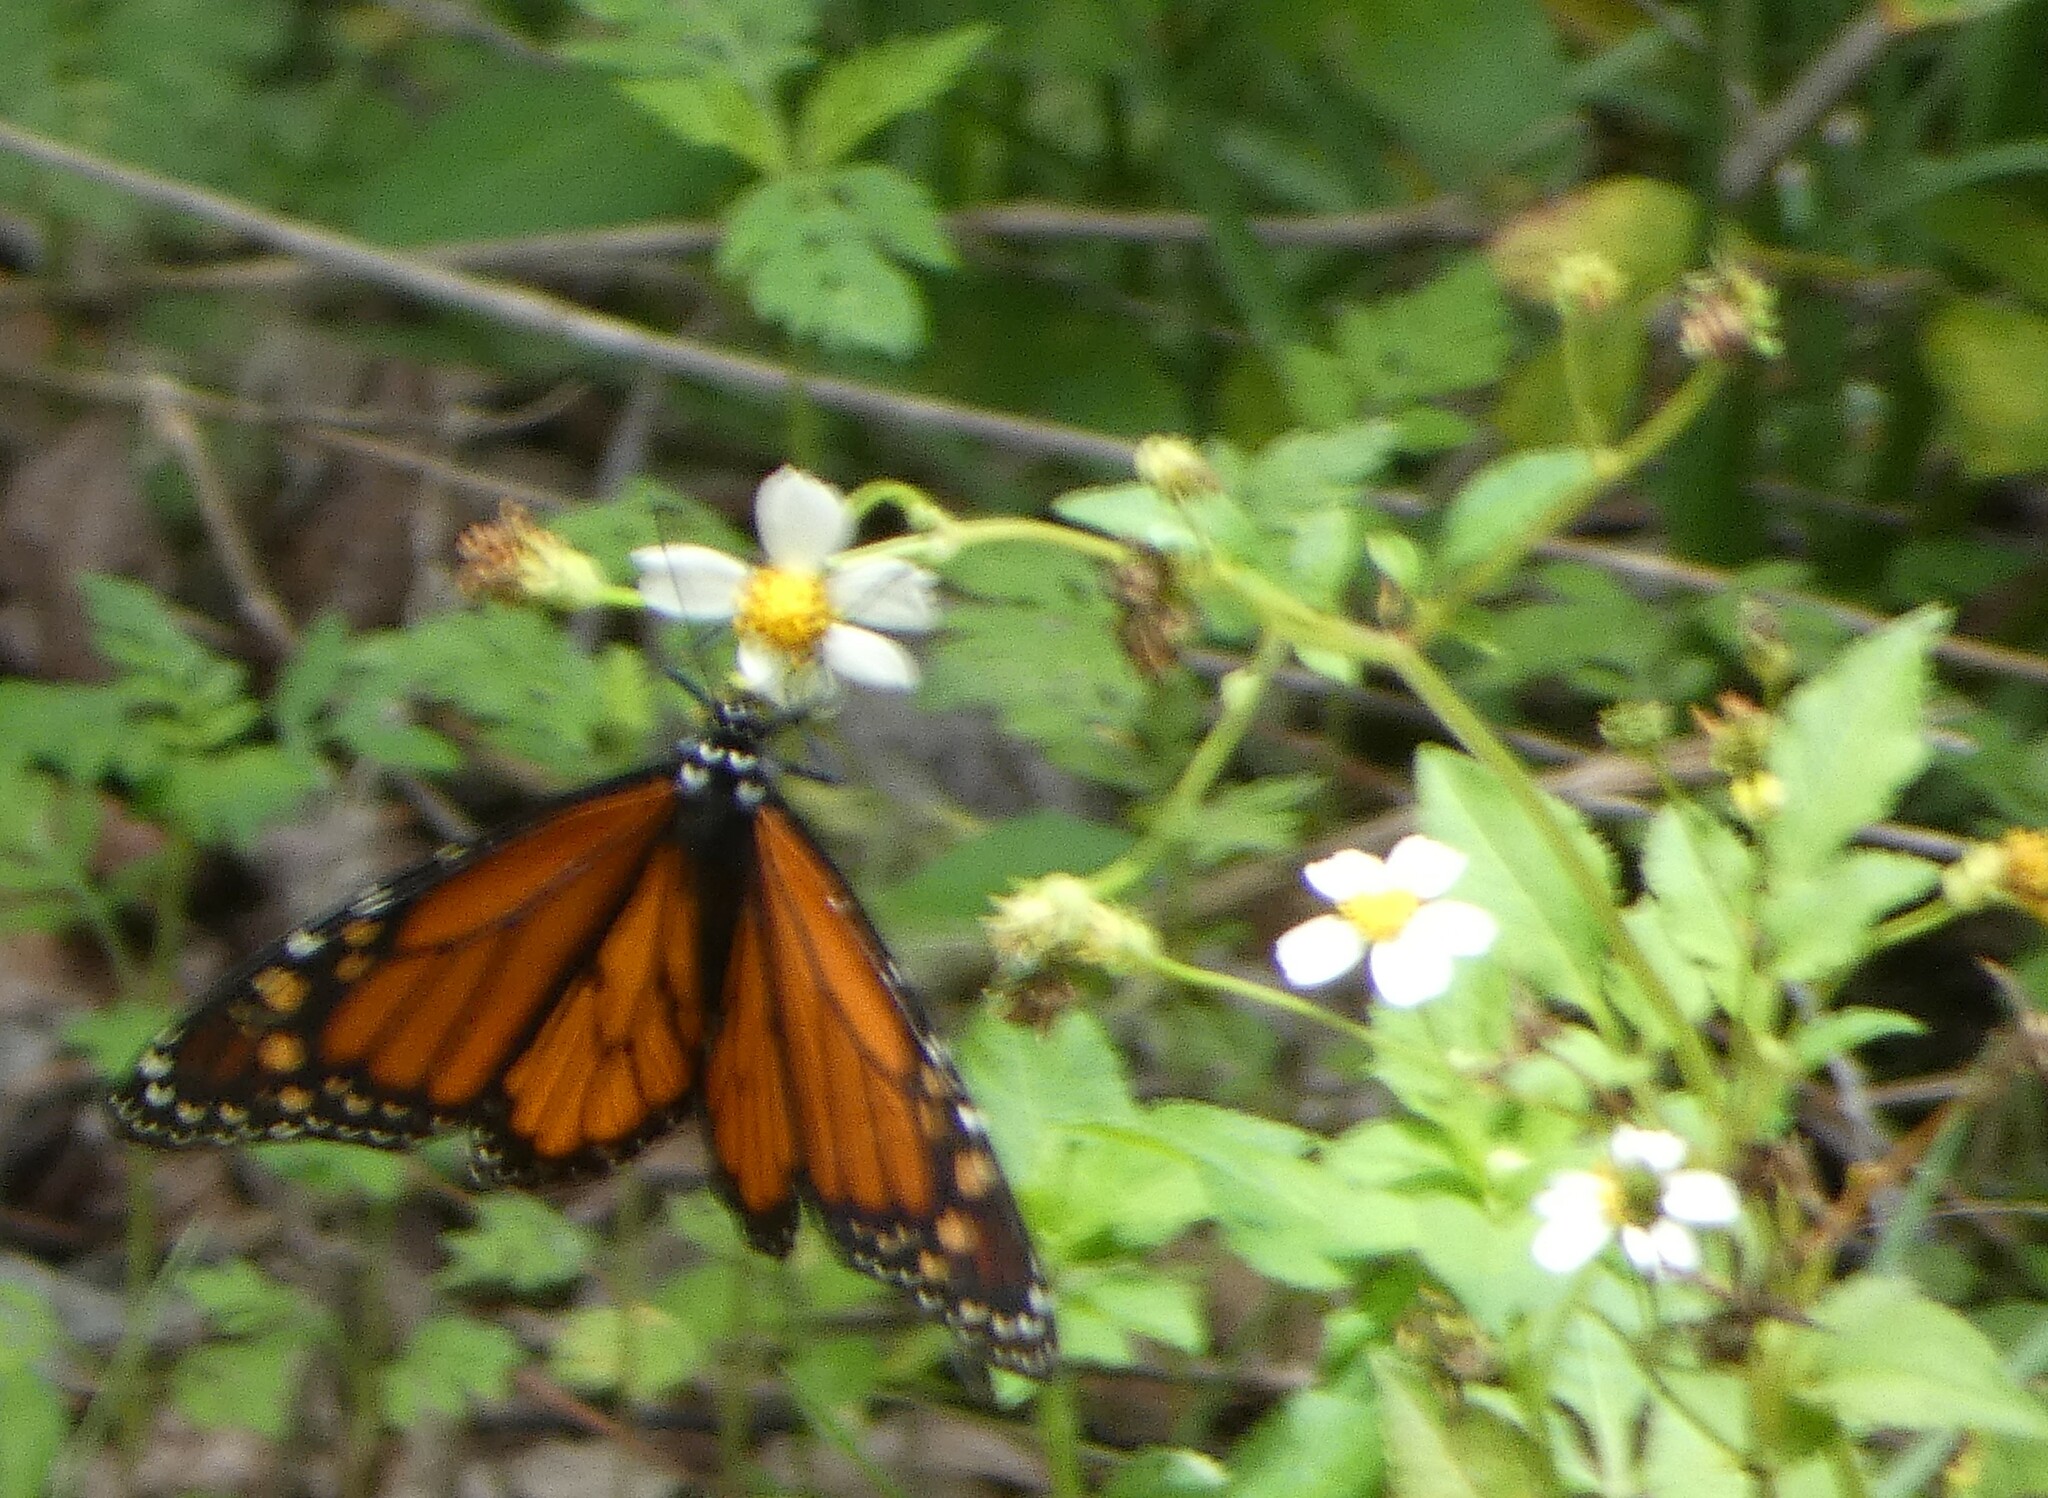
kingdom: Animalia
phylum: Arthropoda
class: Insecta
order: Lepidoptera
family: Nymphalidae
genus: Danaus
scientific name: Danaus plexippus
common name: Monarch
